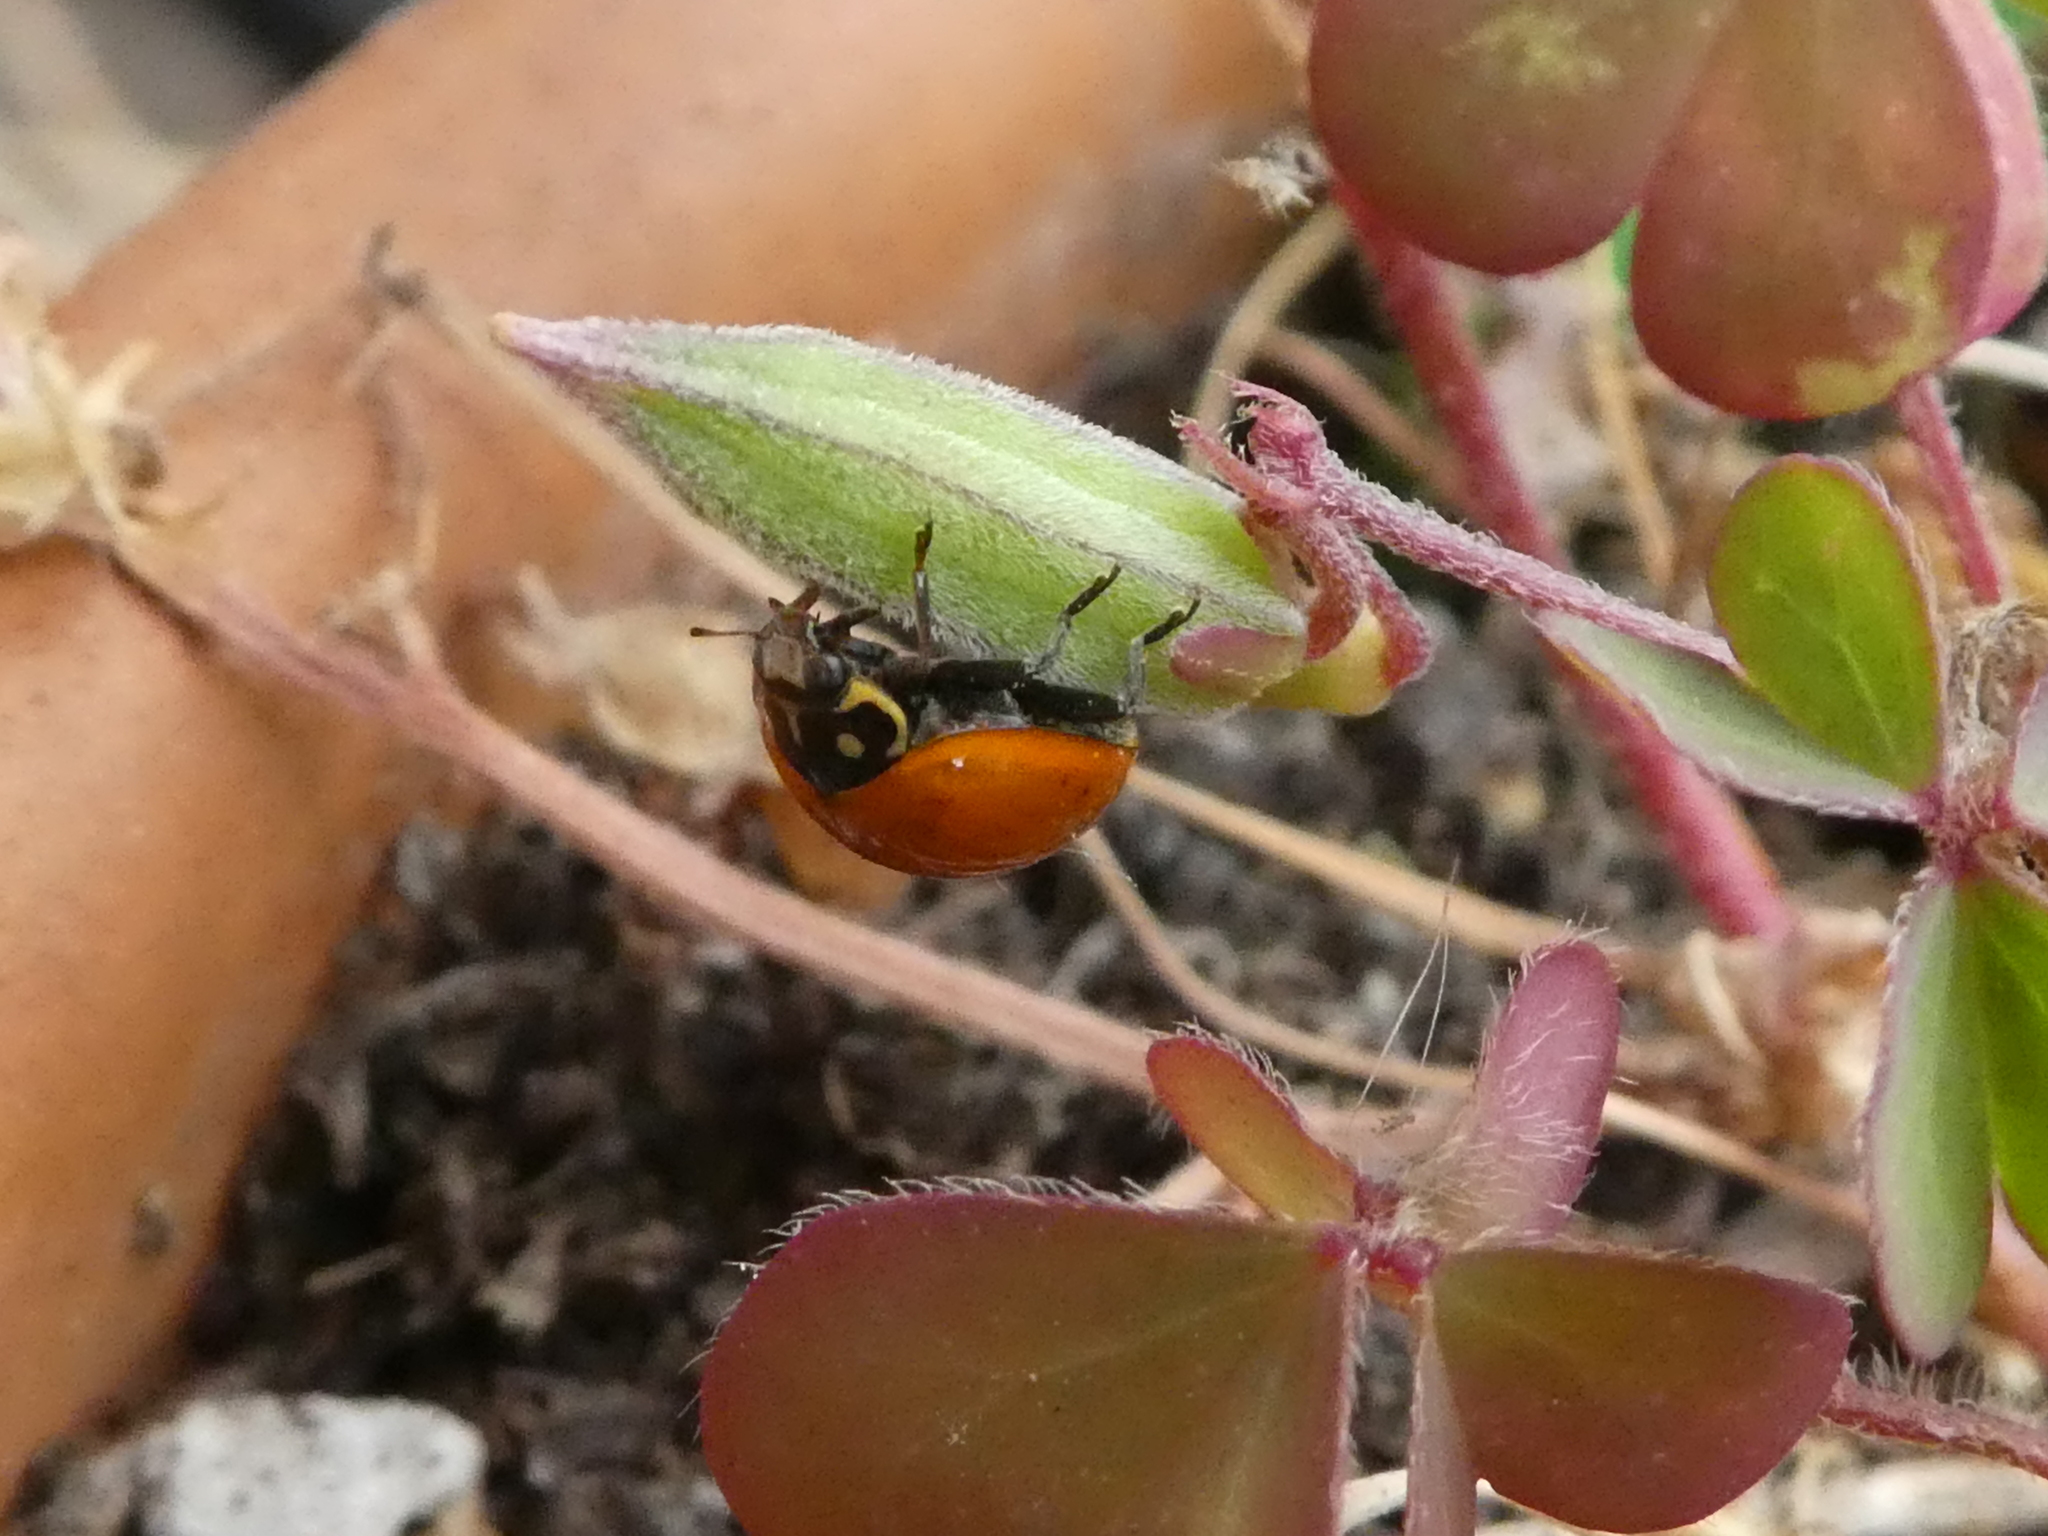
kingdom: Animalia
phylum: Arthropoda
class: Insecta
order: Coleoptera
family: Coccinellidae
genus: Cycloneda
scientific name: Cycloneda sanguinea
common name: Ladybird beetle
